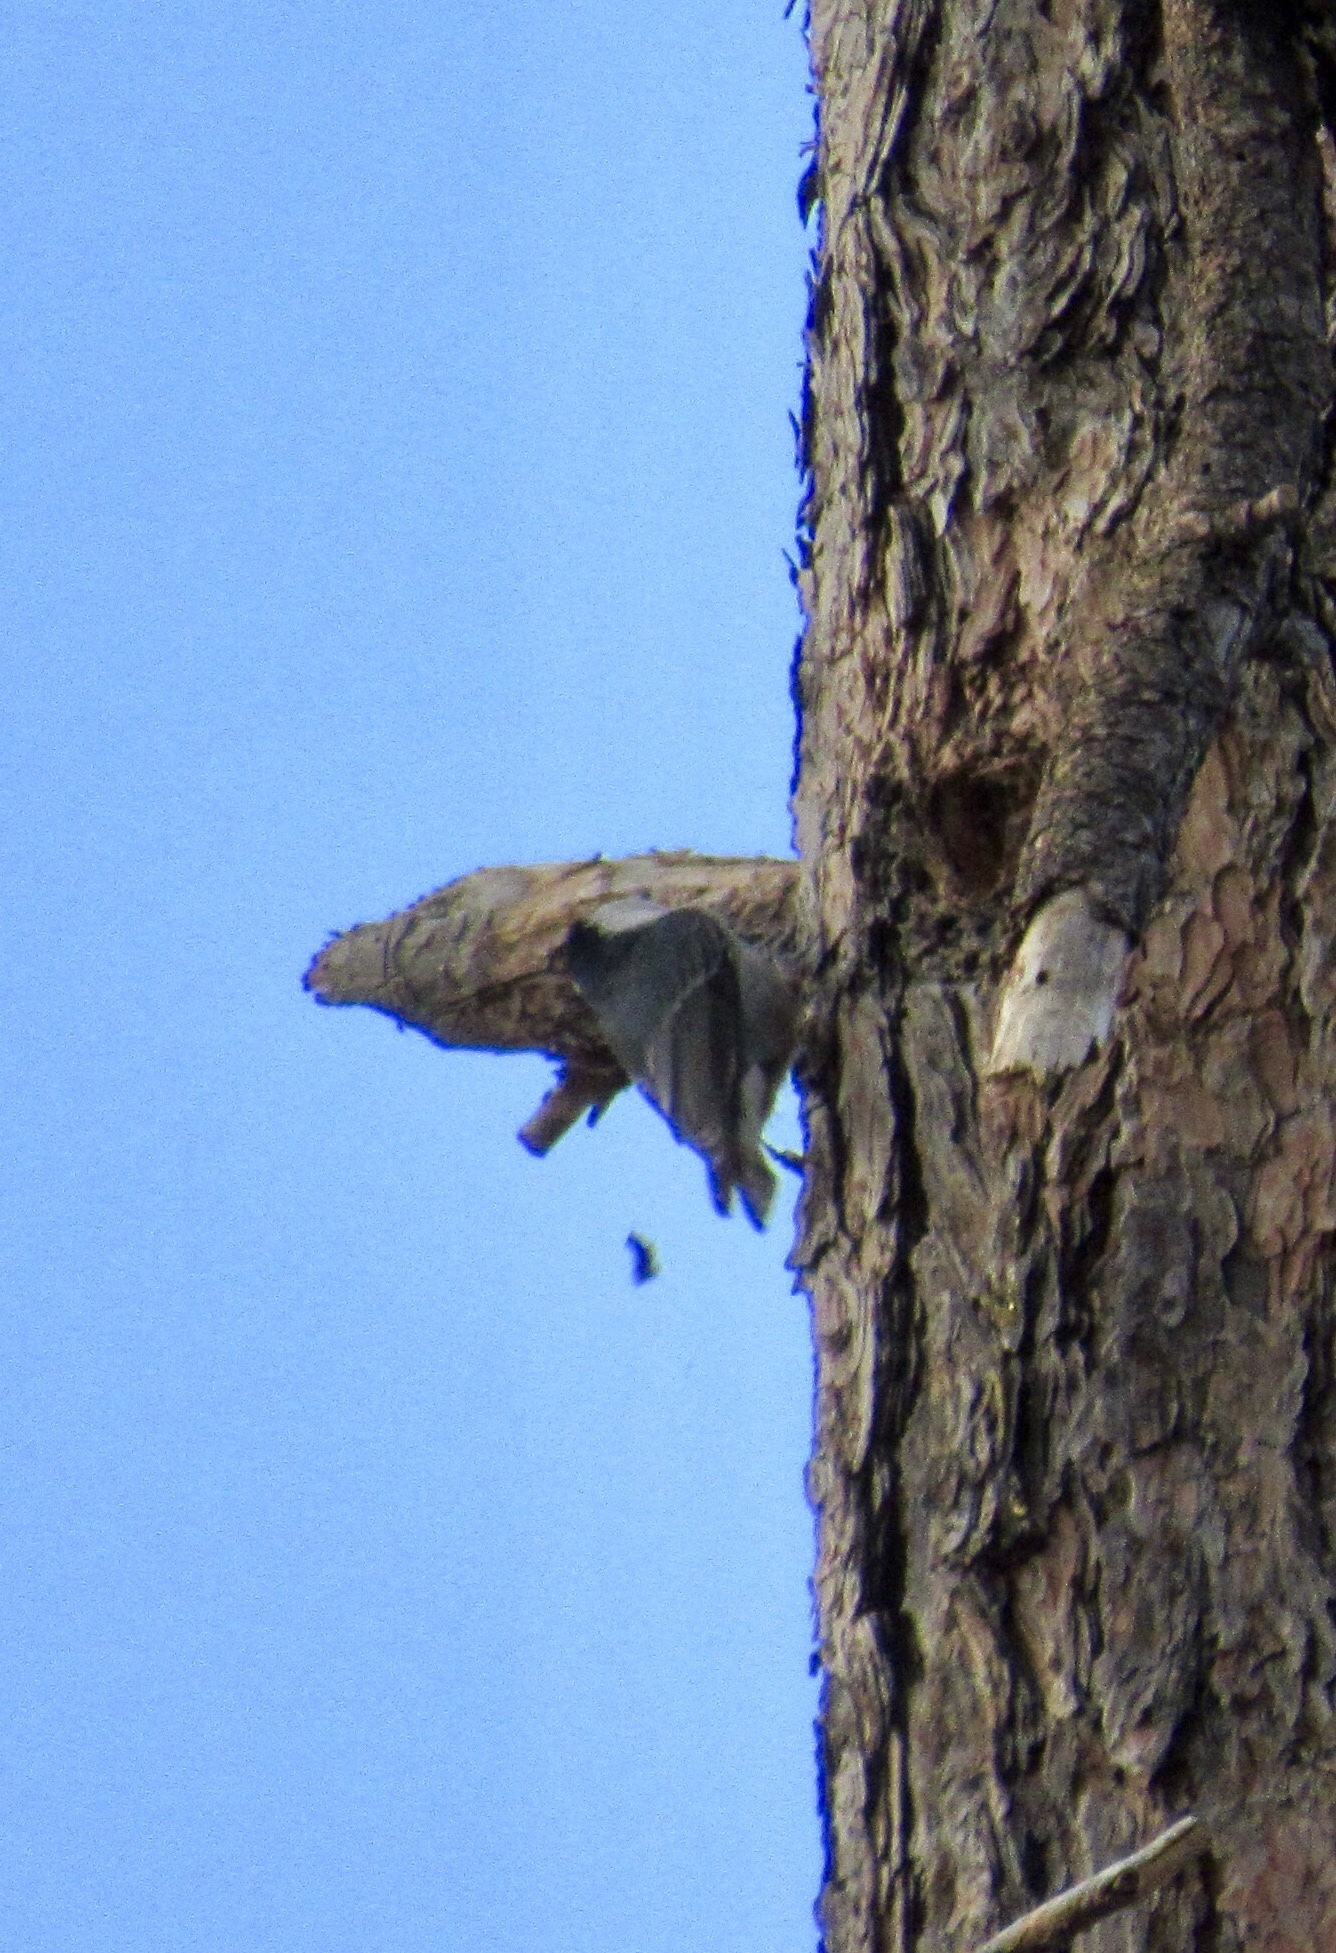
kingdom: Animalia
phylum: Chordata
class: Aves
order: Passeriformes
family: Sittidae
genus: Sitta
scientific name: Sitta carolinensis
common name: White-breasted nuthatch
